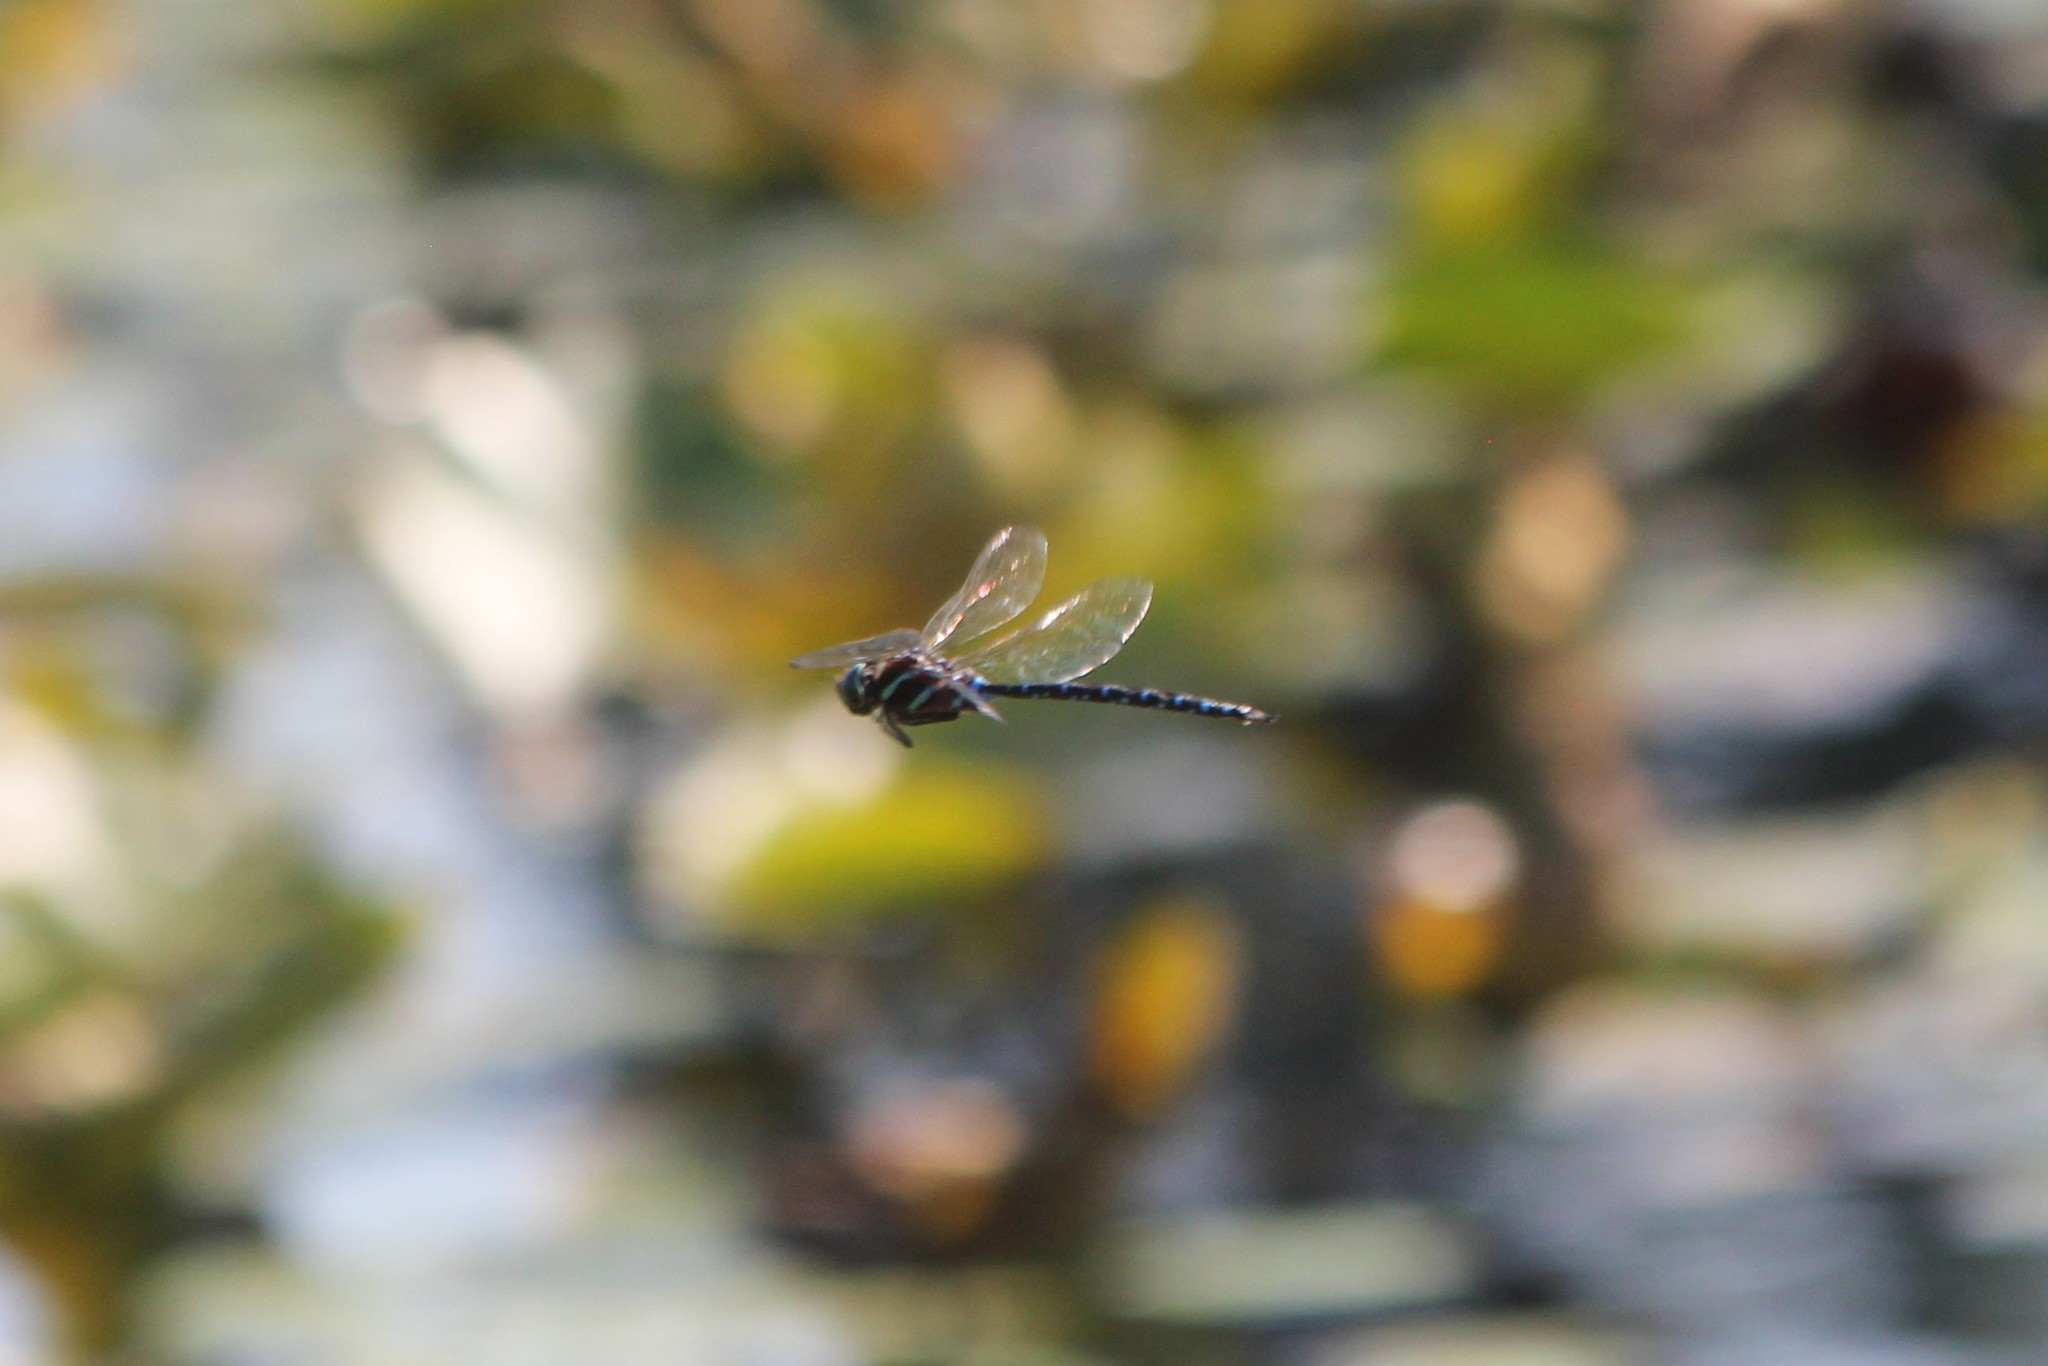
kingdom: Animalia
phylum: Arthropoda
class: Insecta
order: Odonata
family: Aeshnidae
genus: Aeshna
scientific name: Aeshna tuberculifera
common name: Aeschne à tubercules
